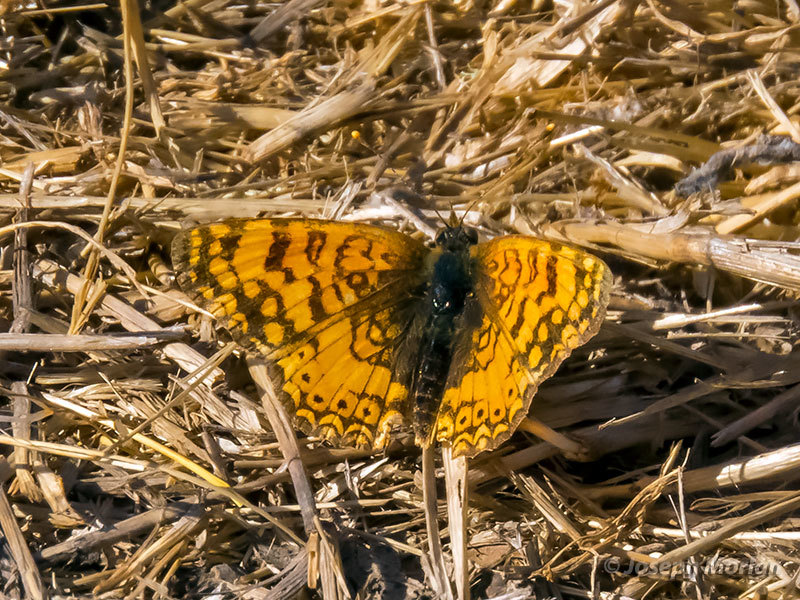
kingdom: Animalia
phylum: Arthropoda
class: Insecta
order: Lepidoptera
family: Nymphalidae
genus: Eresia
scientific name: Eresia aveyrona
